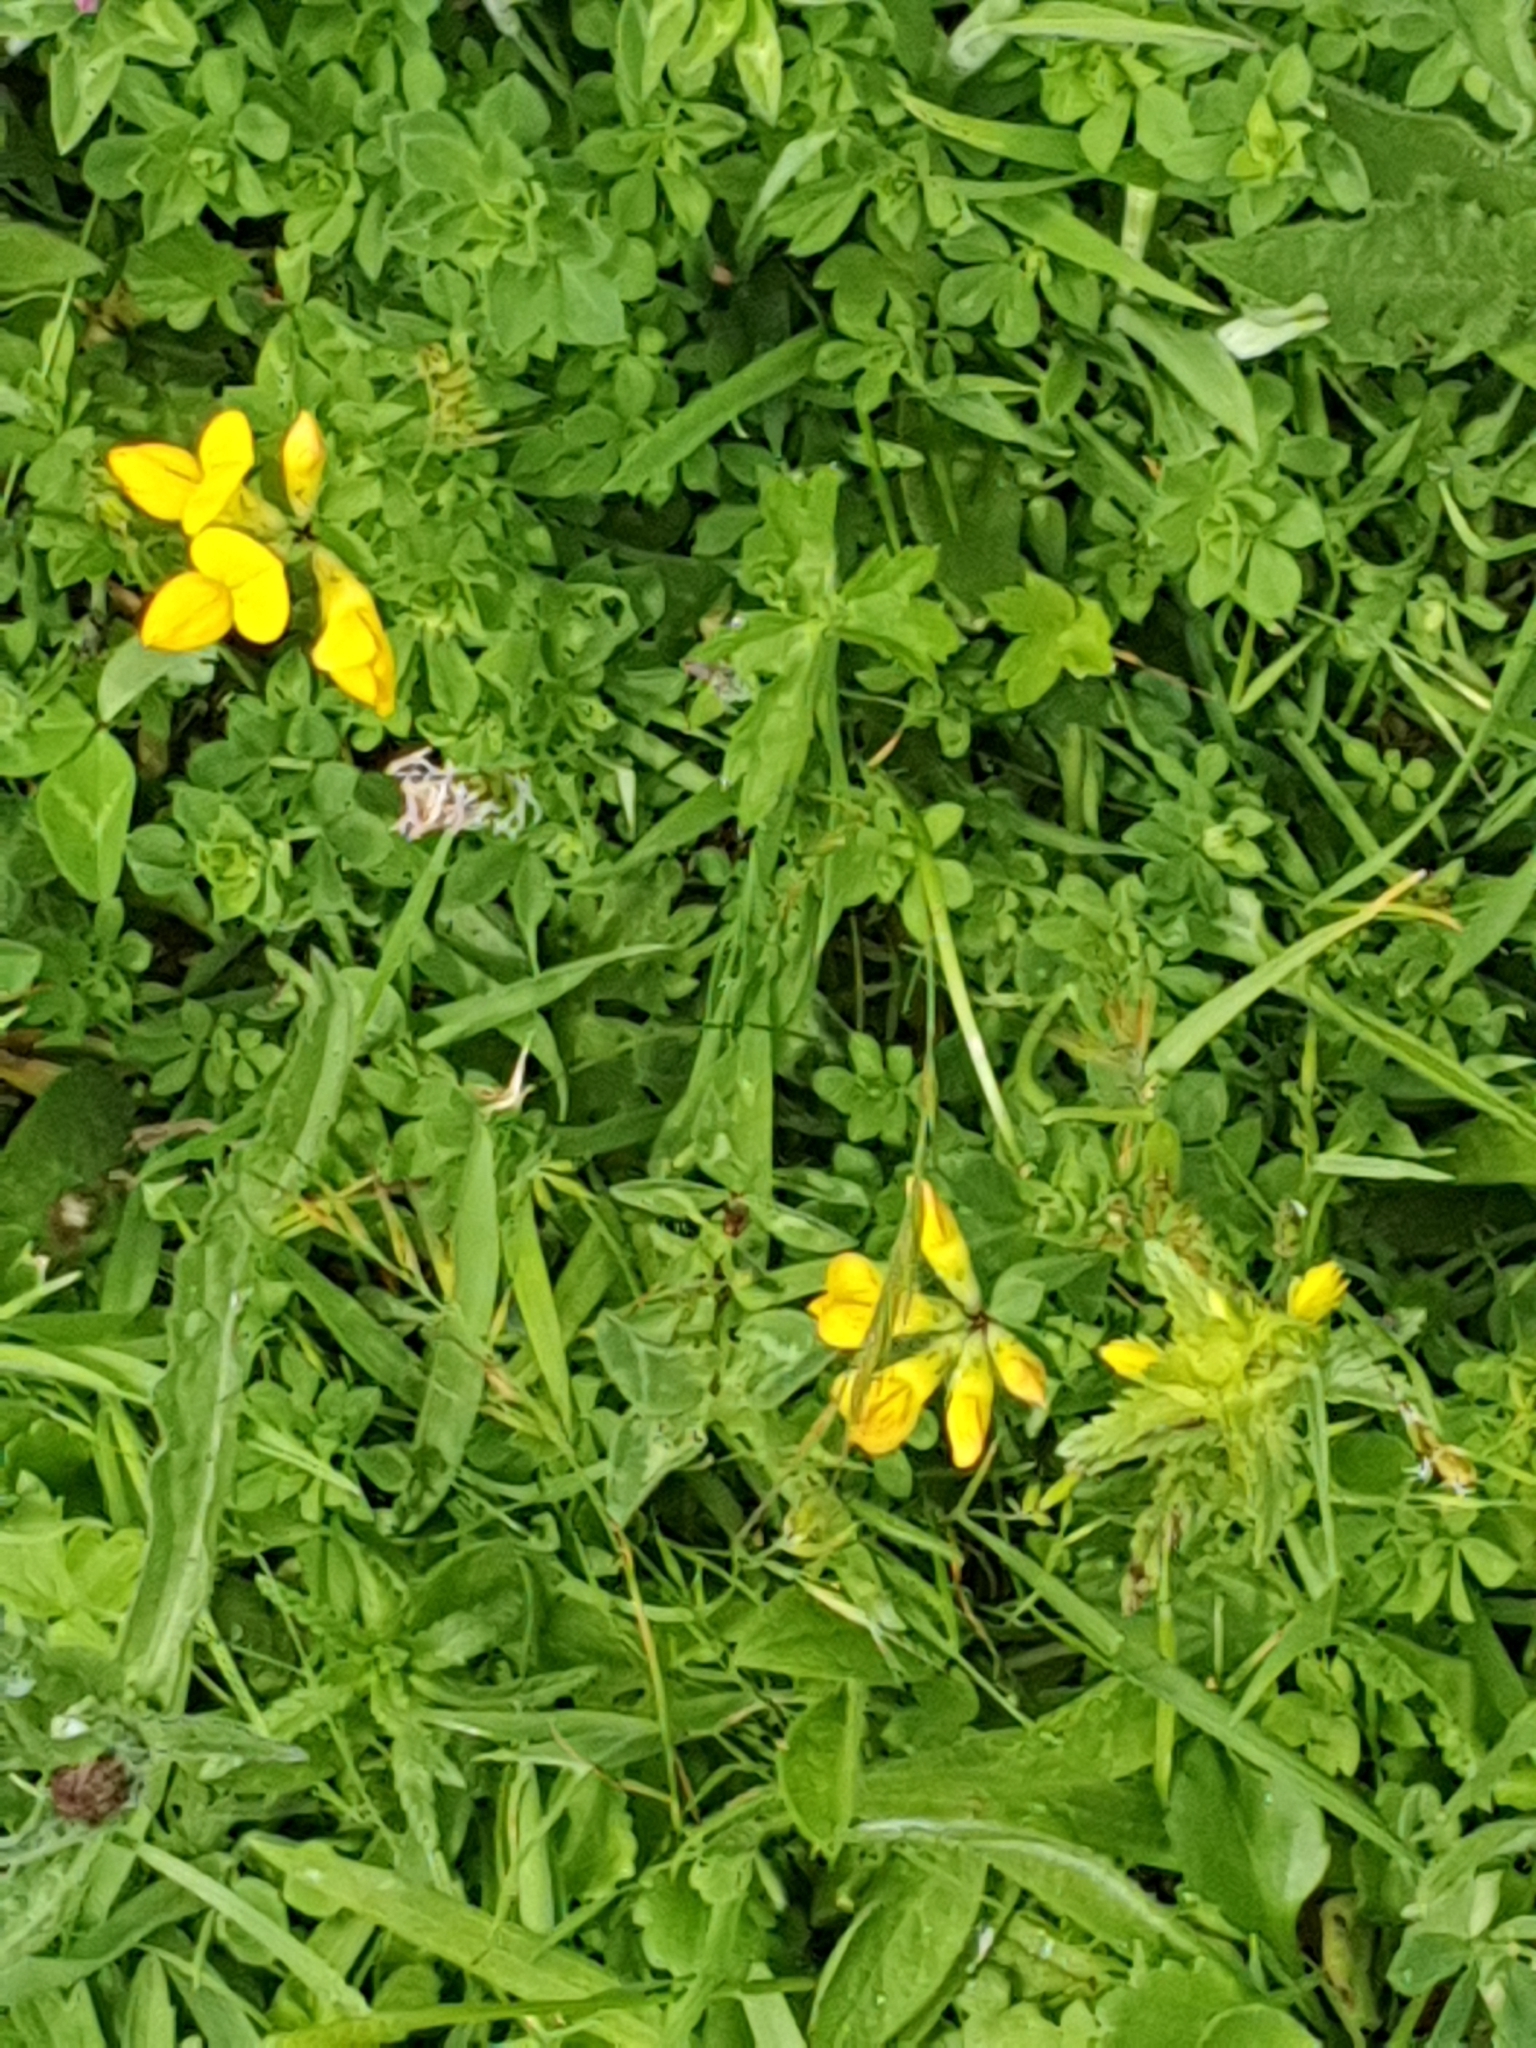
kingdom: Plantae
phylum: Tracheophyta
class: Magnoliopsida
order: Fabales
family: Fabaceae
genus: Lotus
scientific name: Lotus corniculatus
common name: Common bird's-foot-trefoil
